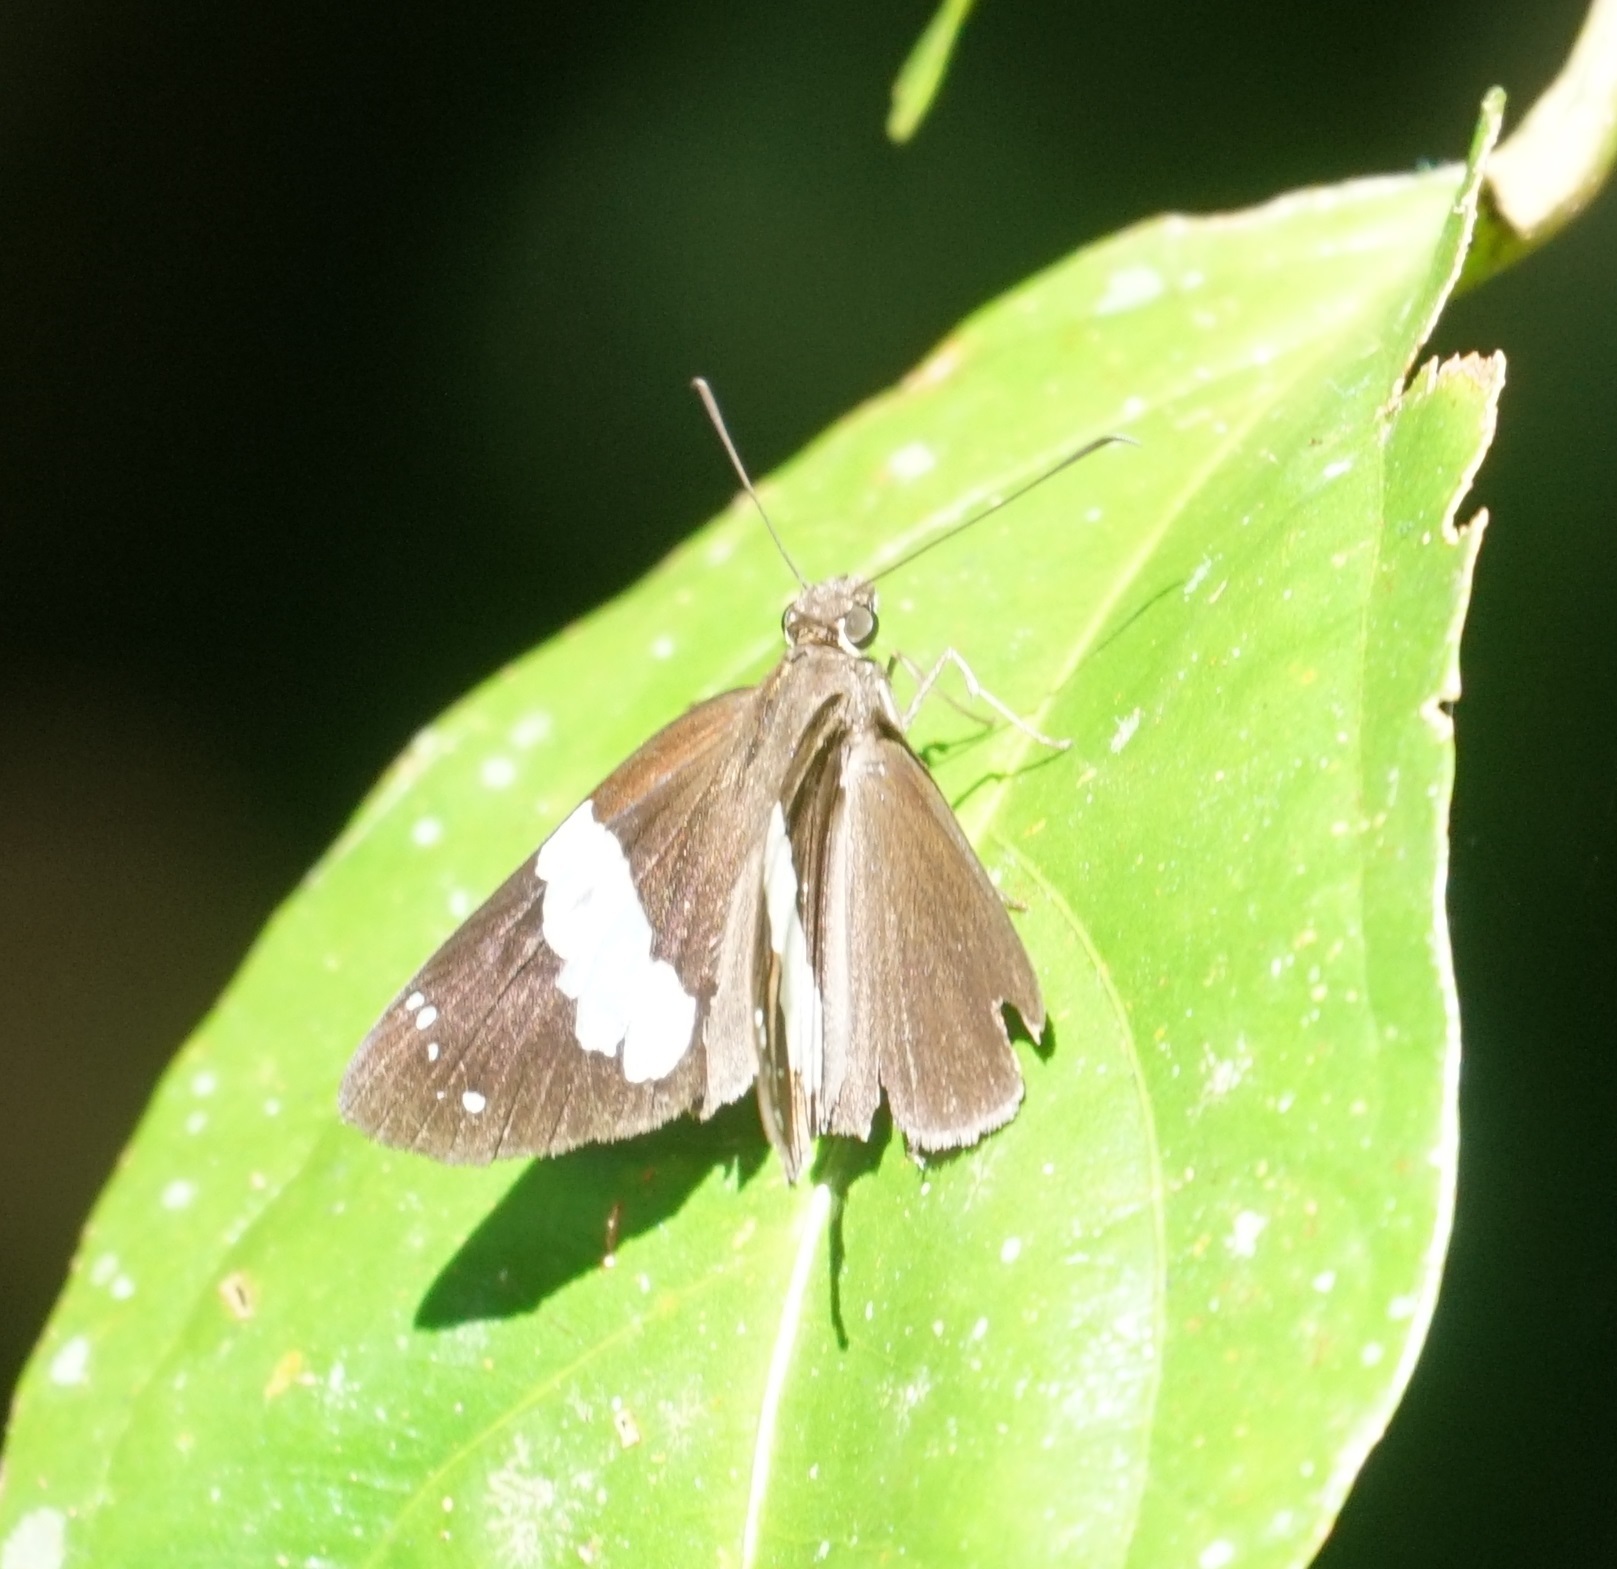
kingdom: Animalia
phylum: Arthropoda
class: Insecta
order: Lepidoptera
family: Hesperiidae
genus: Notocrypta
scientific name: Notocrypta waigensis
